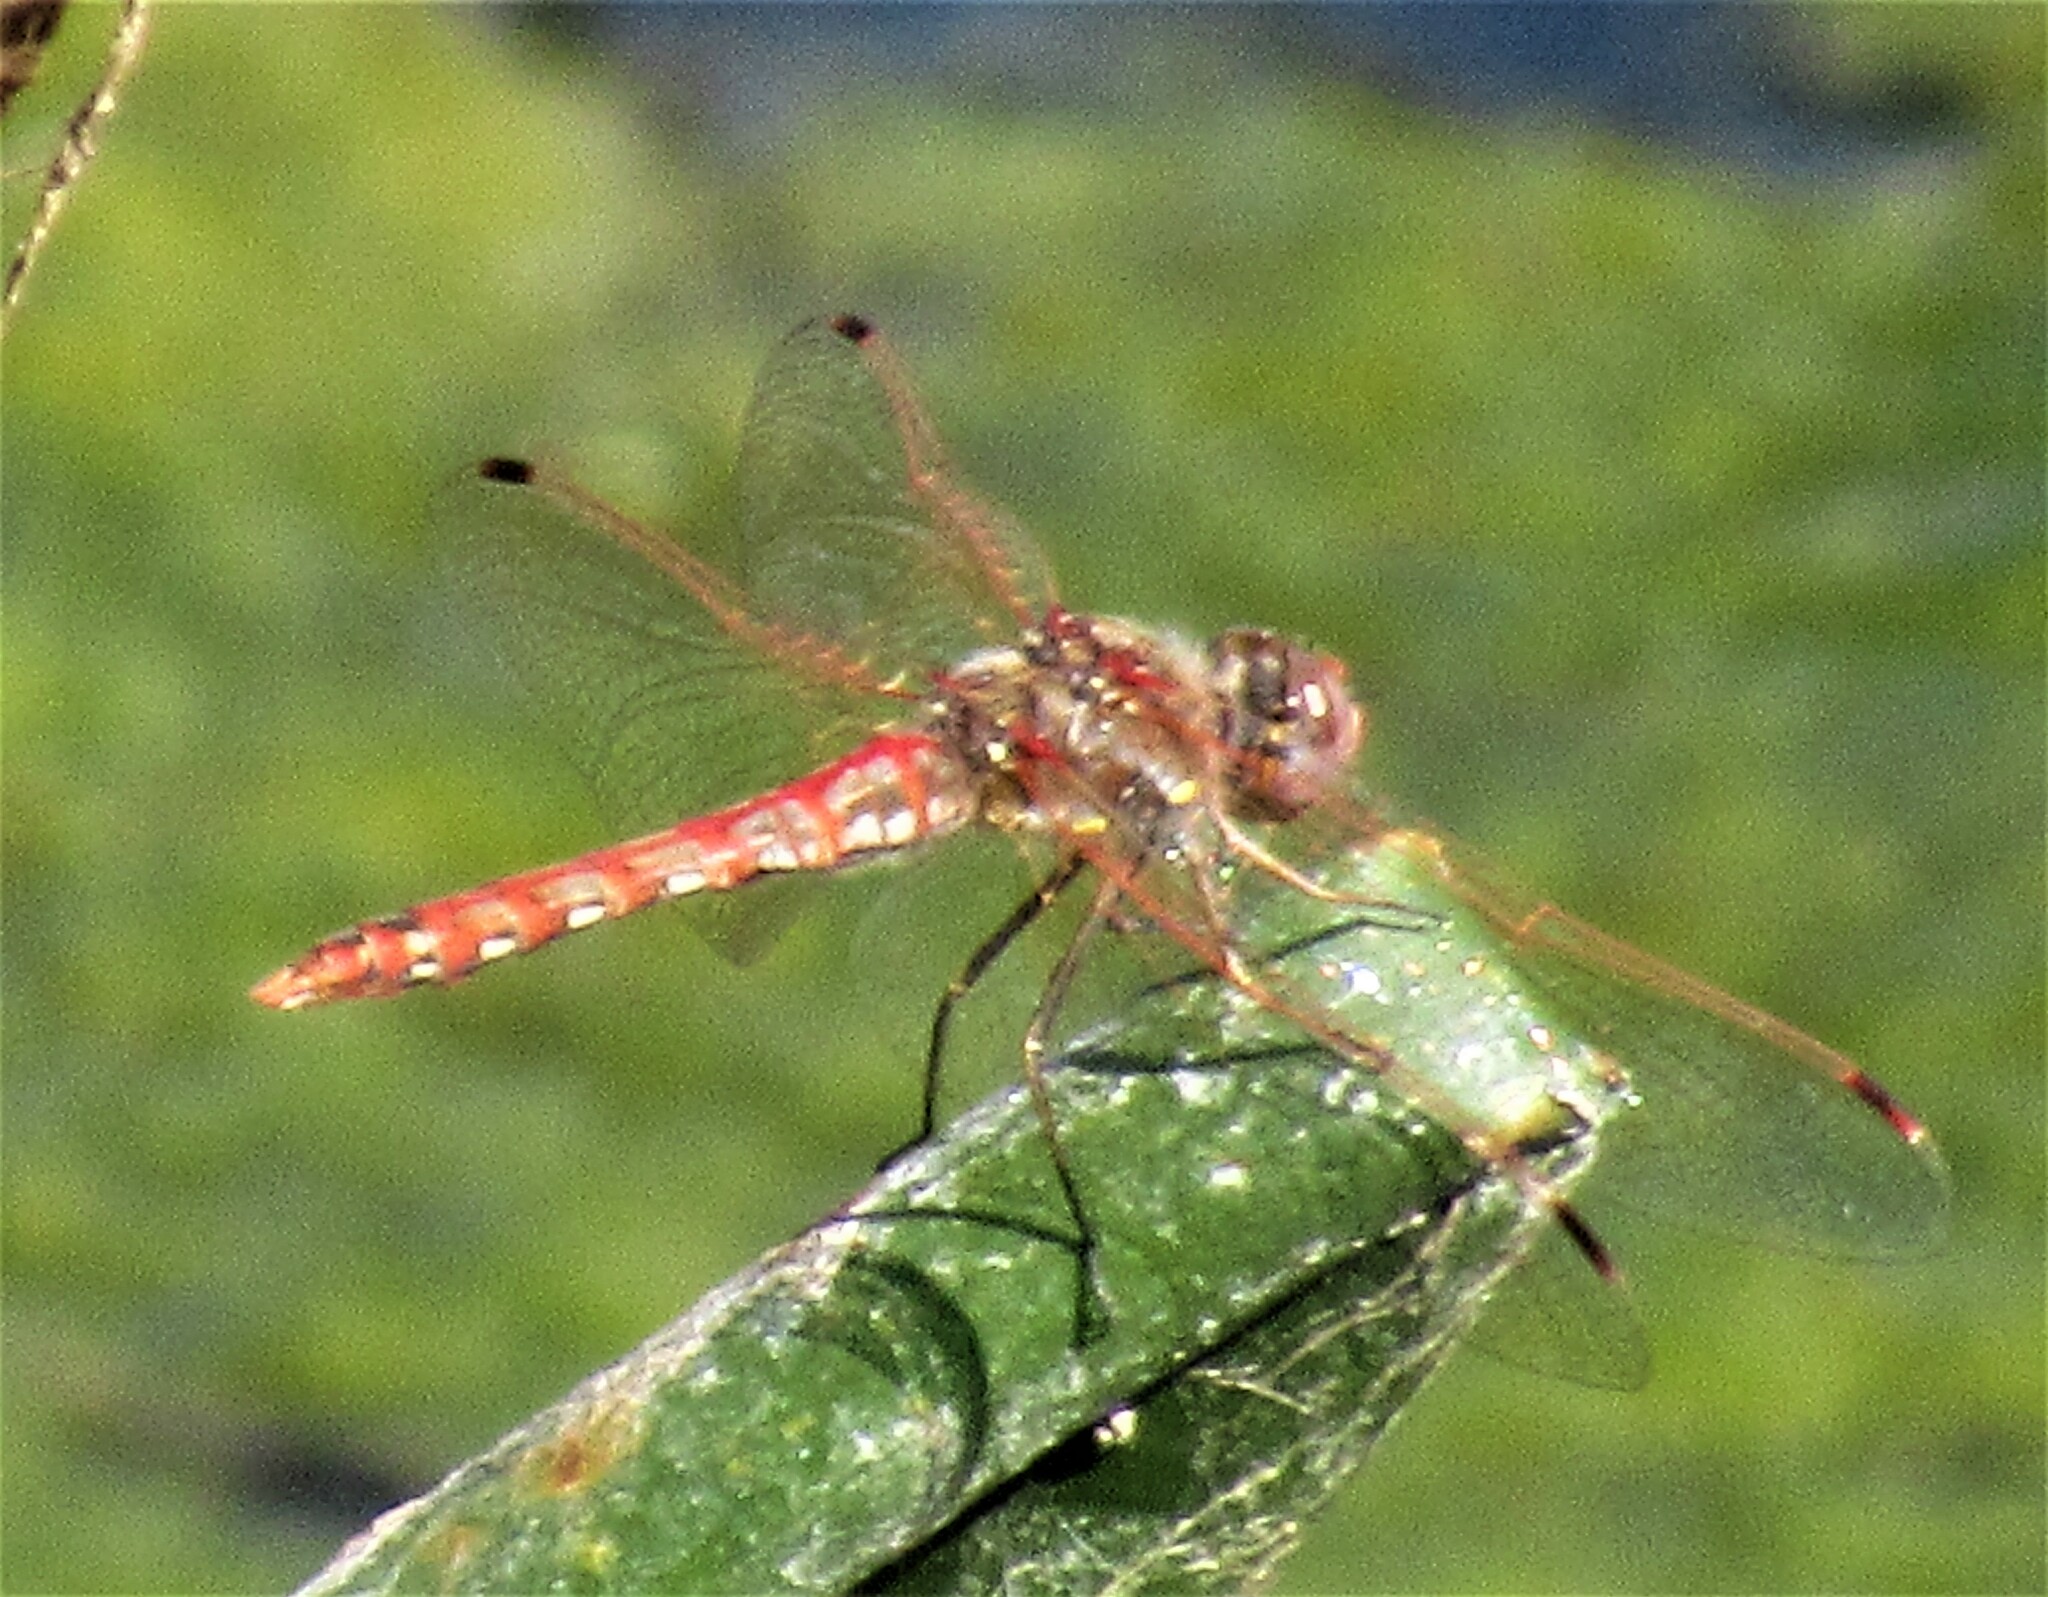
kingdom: Animalia
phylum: Arthropoda
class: Insecta
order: Odonata
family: Libellulidae
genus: Sympetrum
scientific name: Sympetrum corruptum
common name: Variegated meadowhawk
